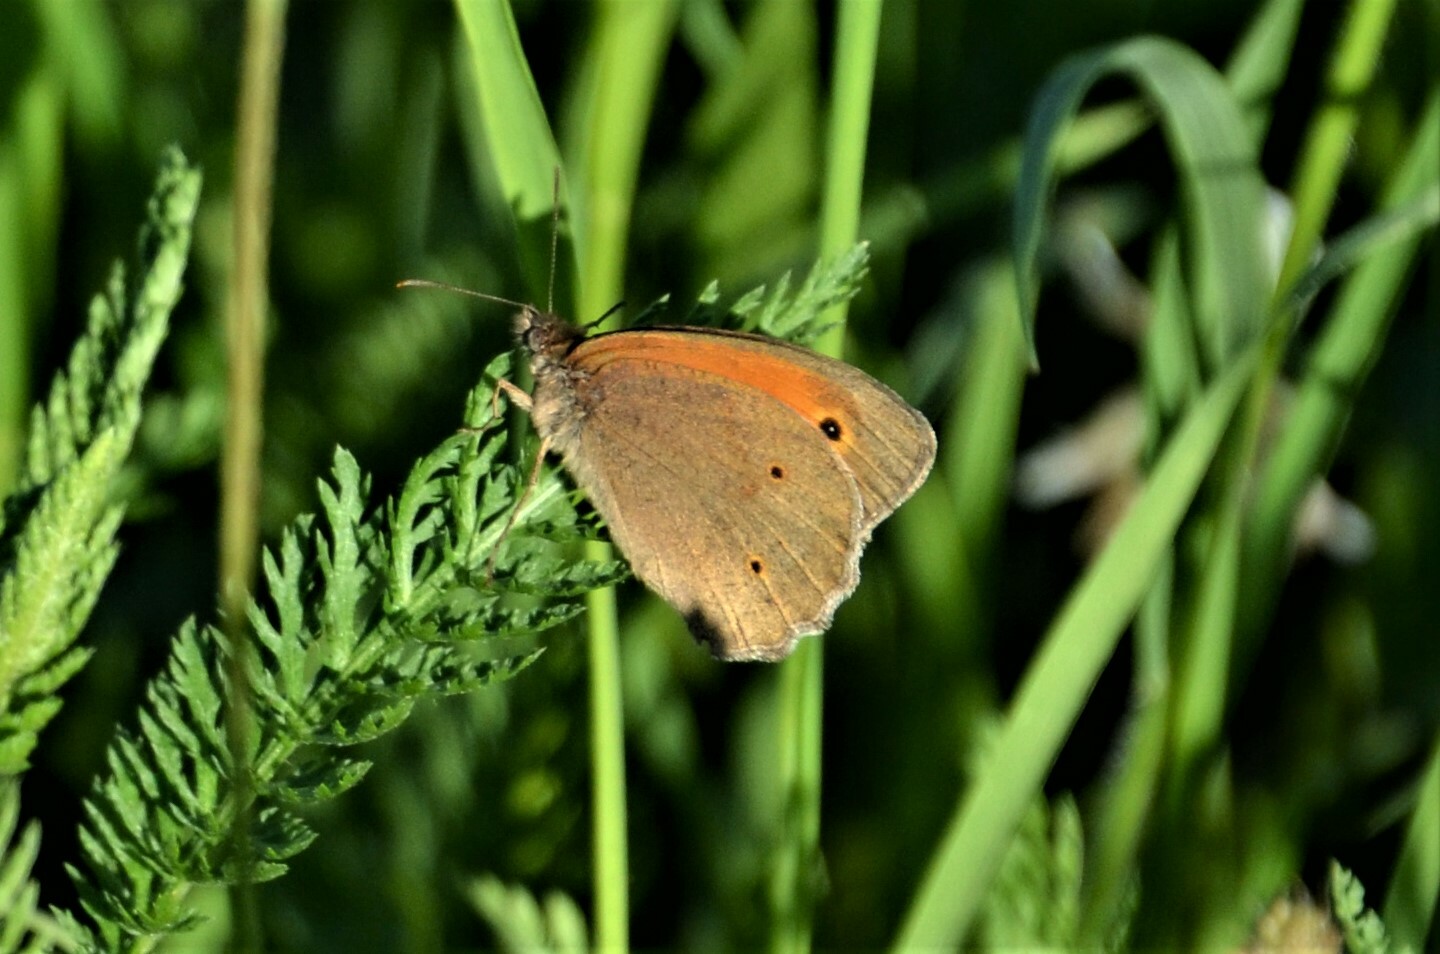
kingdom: Animalia
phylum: Arthropoda
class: Insecta
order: Lepidoptera
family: Nymphalidae
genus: Maniola
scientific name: Maniola jurtina
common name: Meadow brown
